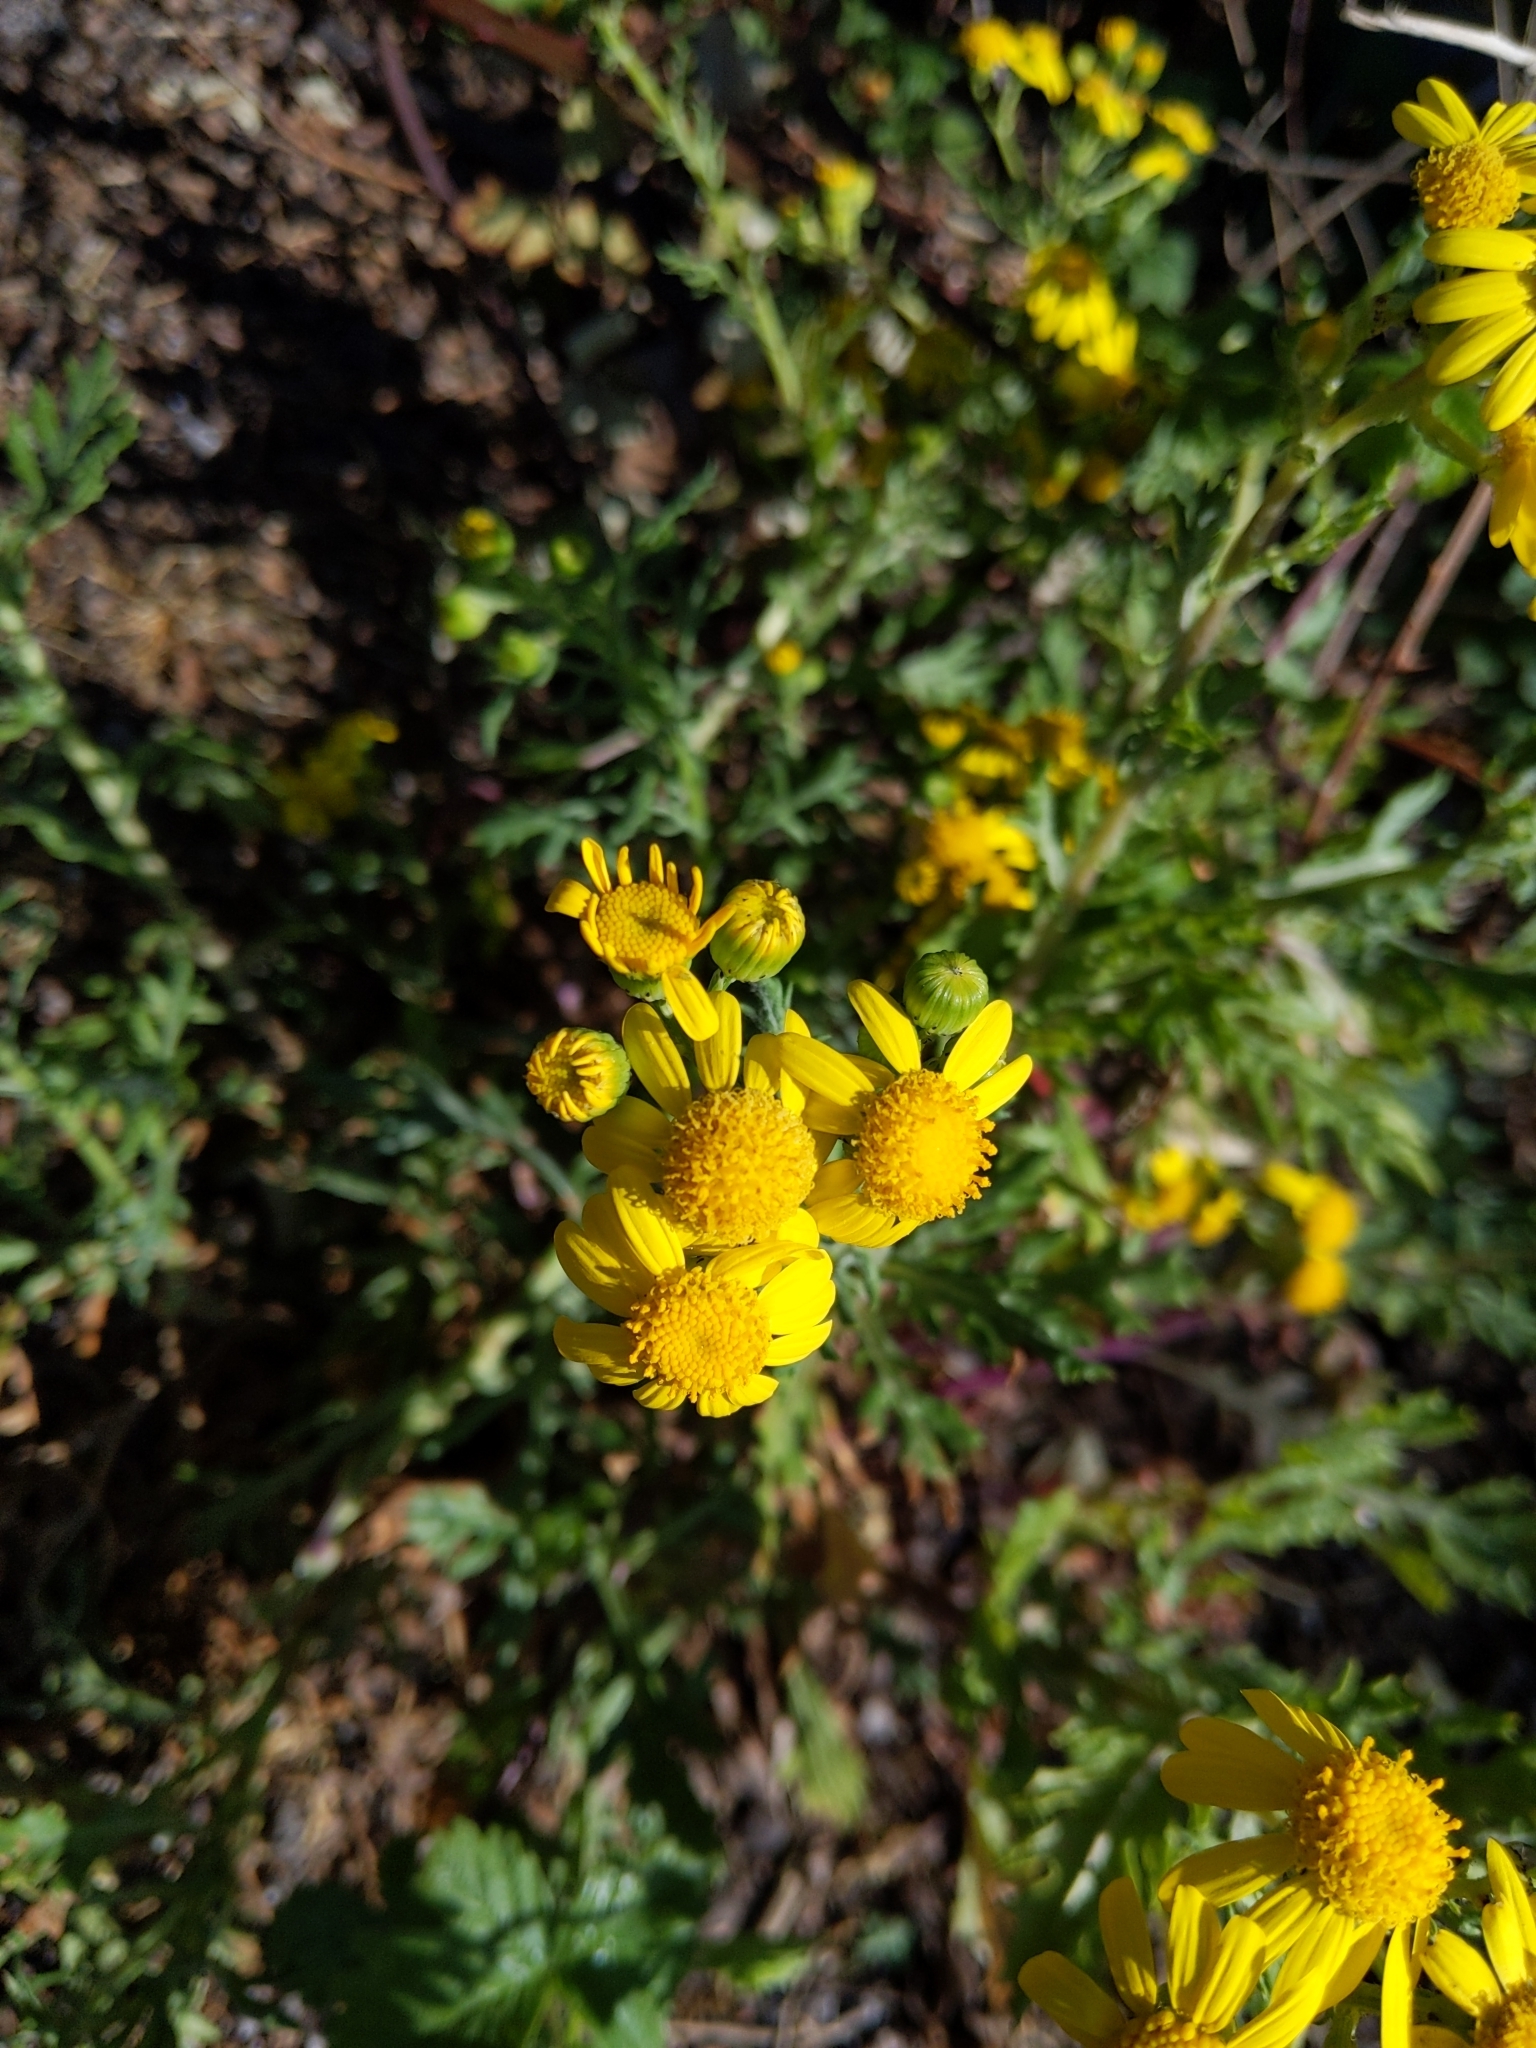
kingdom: Plantae
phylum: Tracheophyta
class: Magnoliopsida
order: Asterales
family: Asteraceae
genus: Senecio
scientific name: Senecio squalidus
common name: Oxford ragwort
